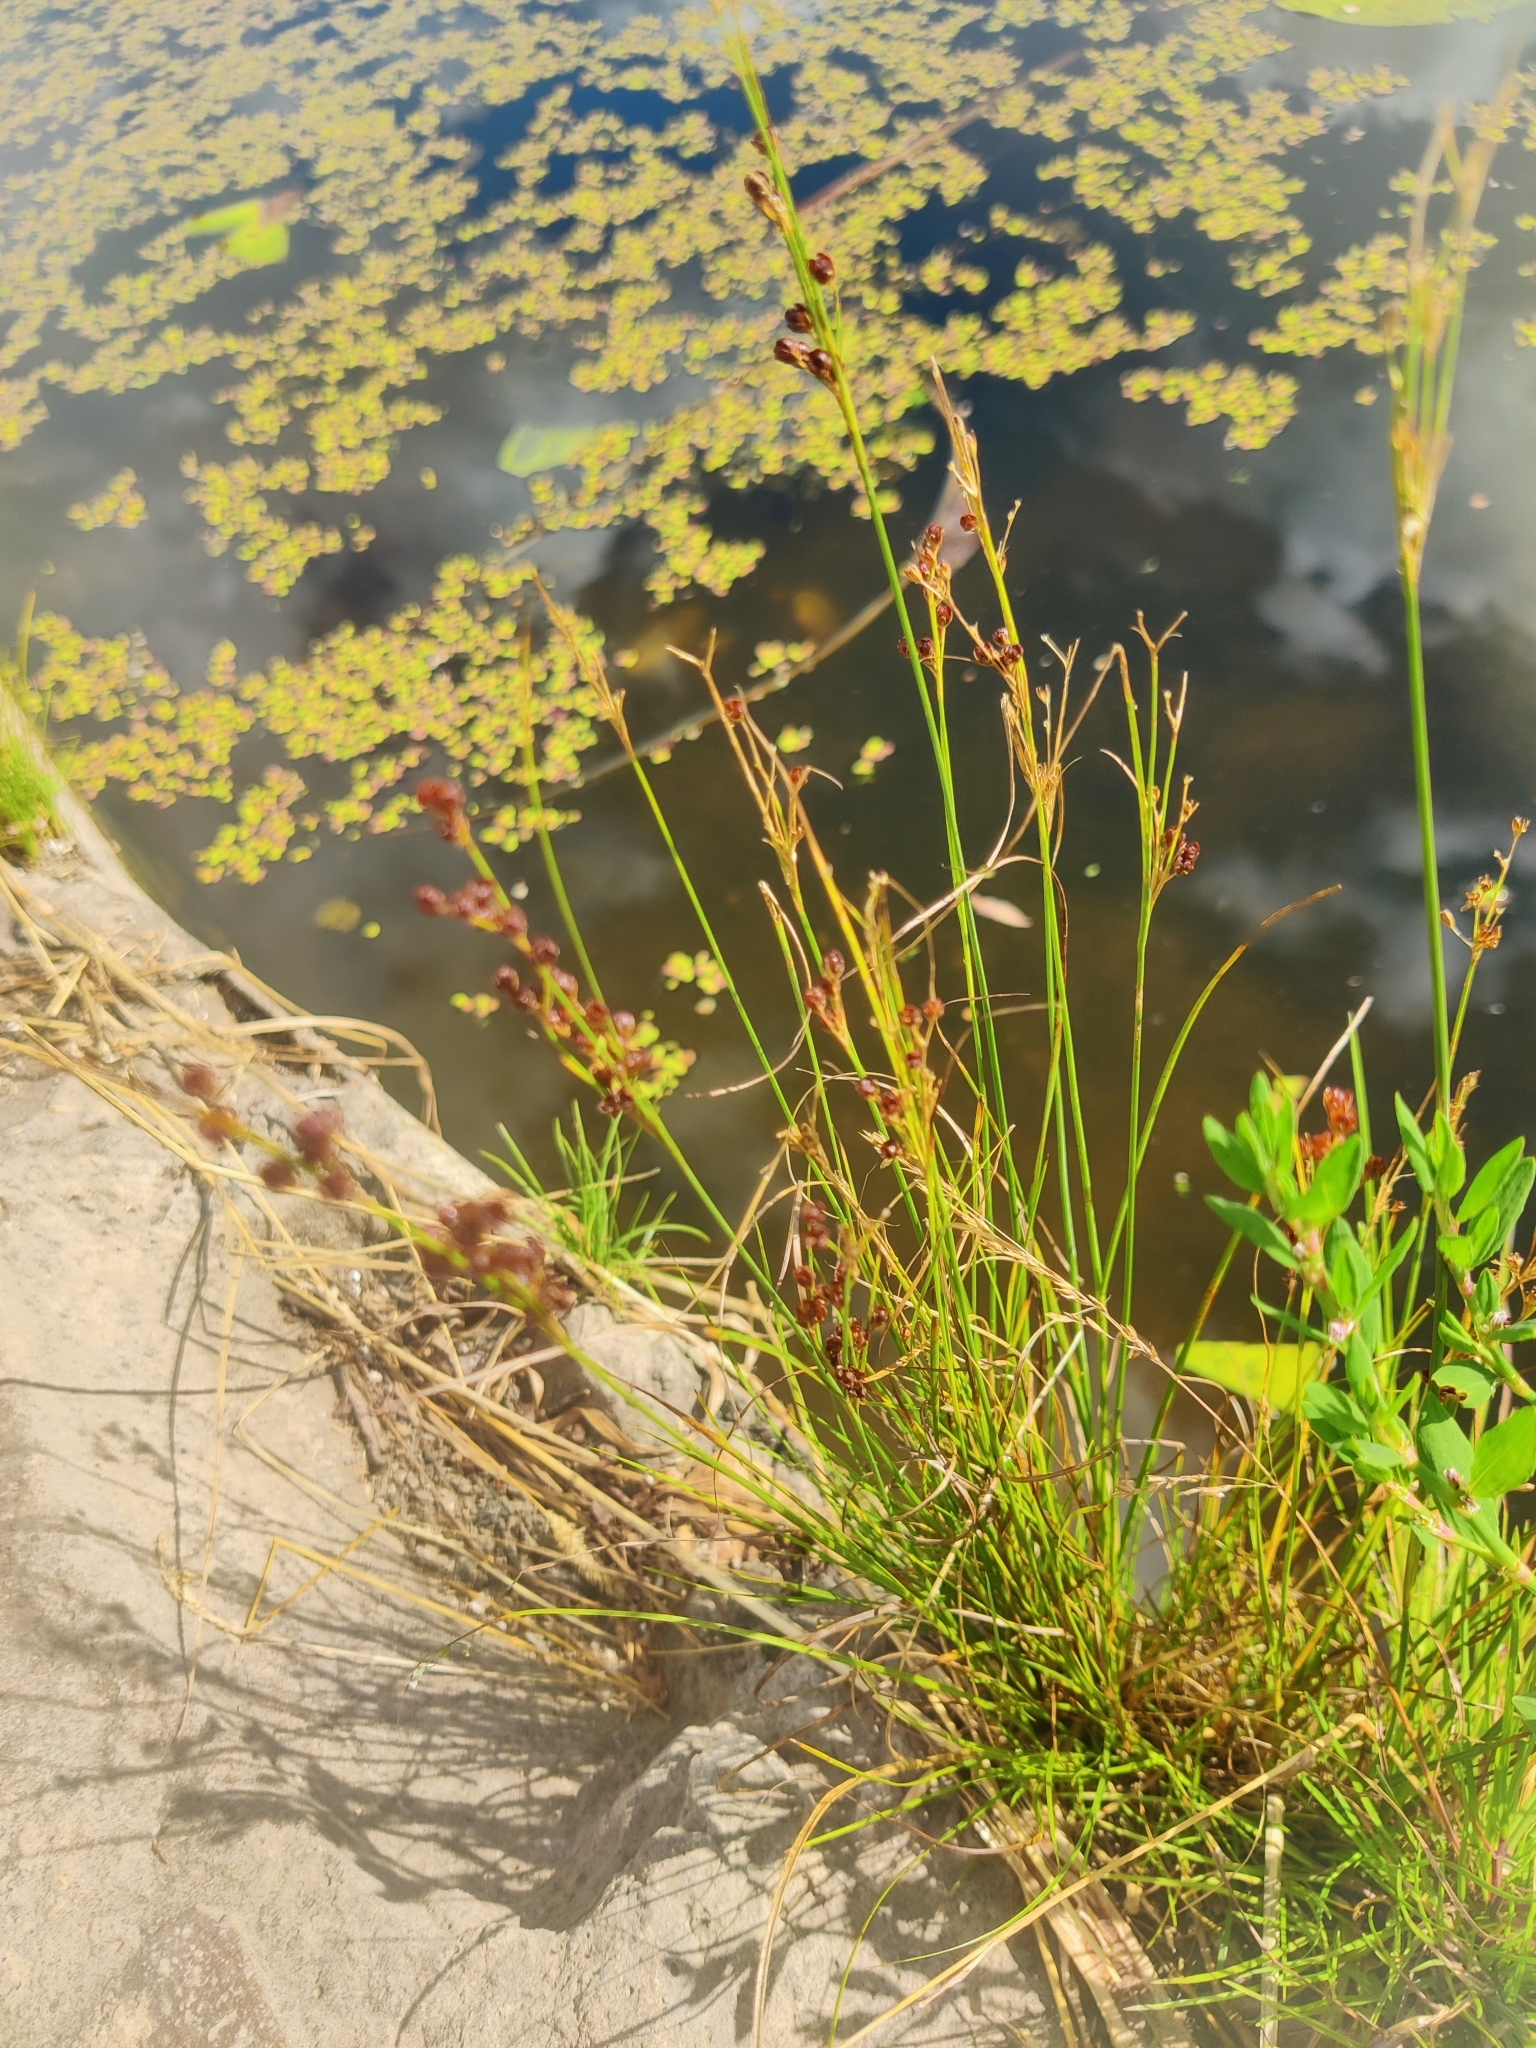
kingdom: Plantae
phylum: Tracheophyta
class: Liliopsida
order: Poales
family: Juncaceae
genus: Juncus
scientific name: Juncus compressus
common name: Round-fruited rush
